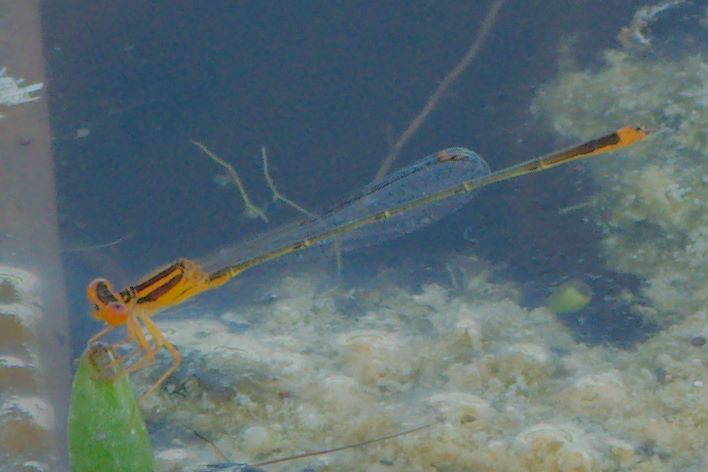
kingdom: Animalia
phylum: Arthropoda
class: Insecta
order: Odonata
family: Coenagrionidae
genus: Enallagma
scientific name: Enallagma pollutum
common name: Florida bluet
